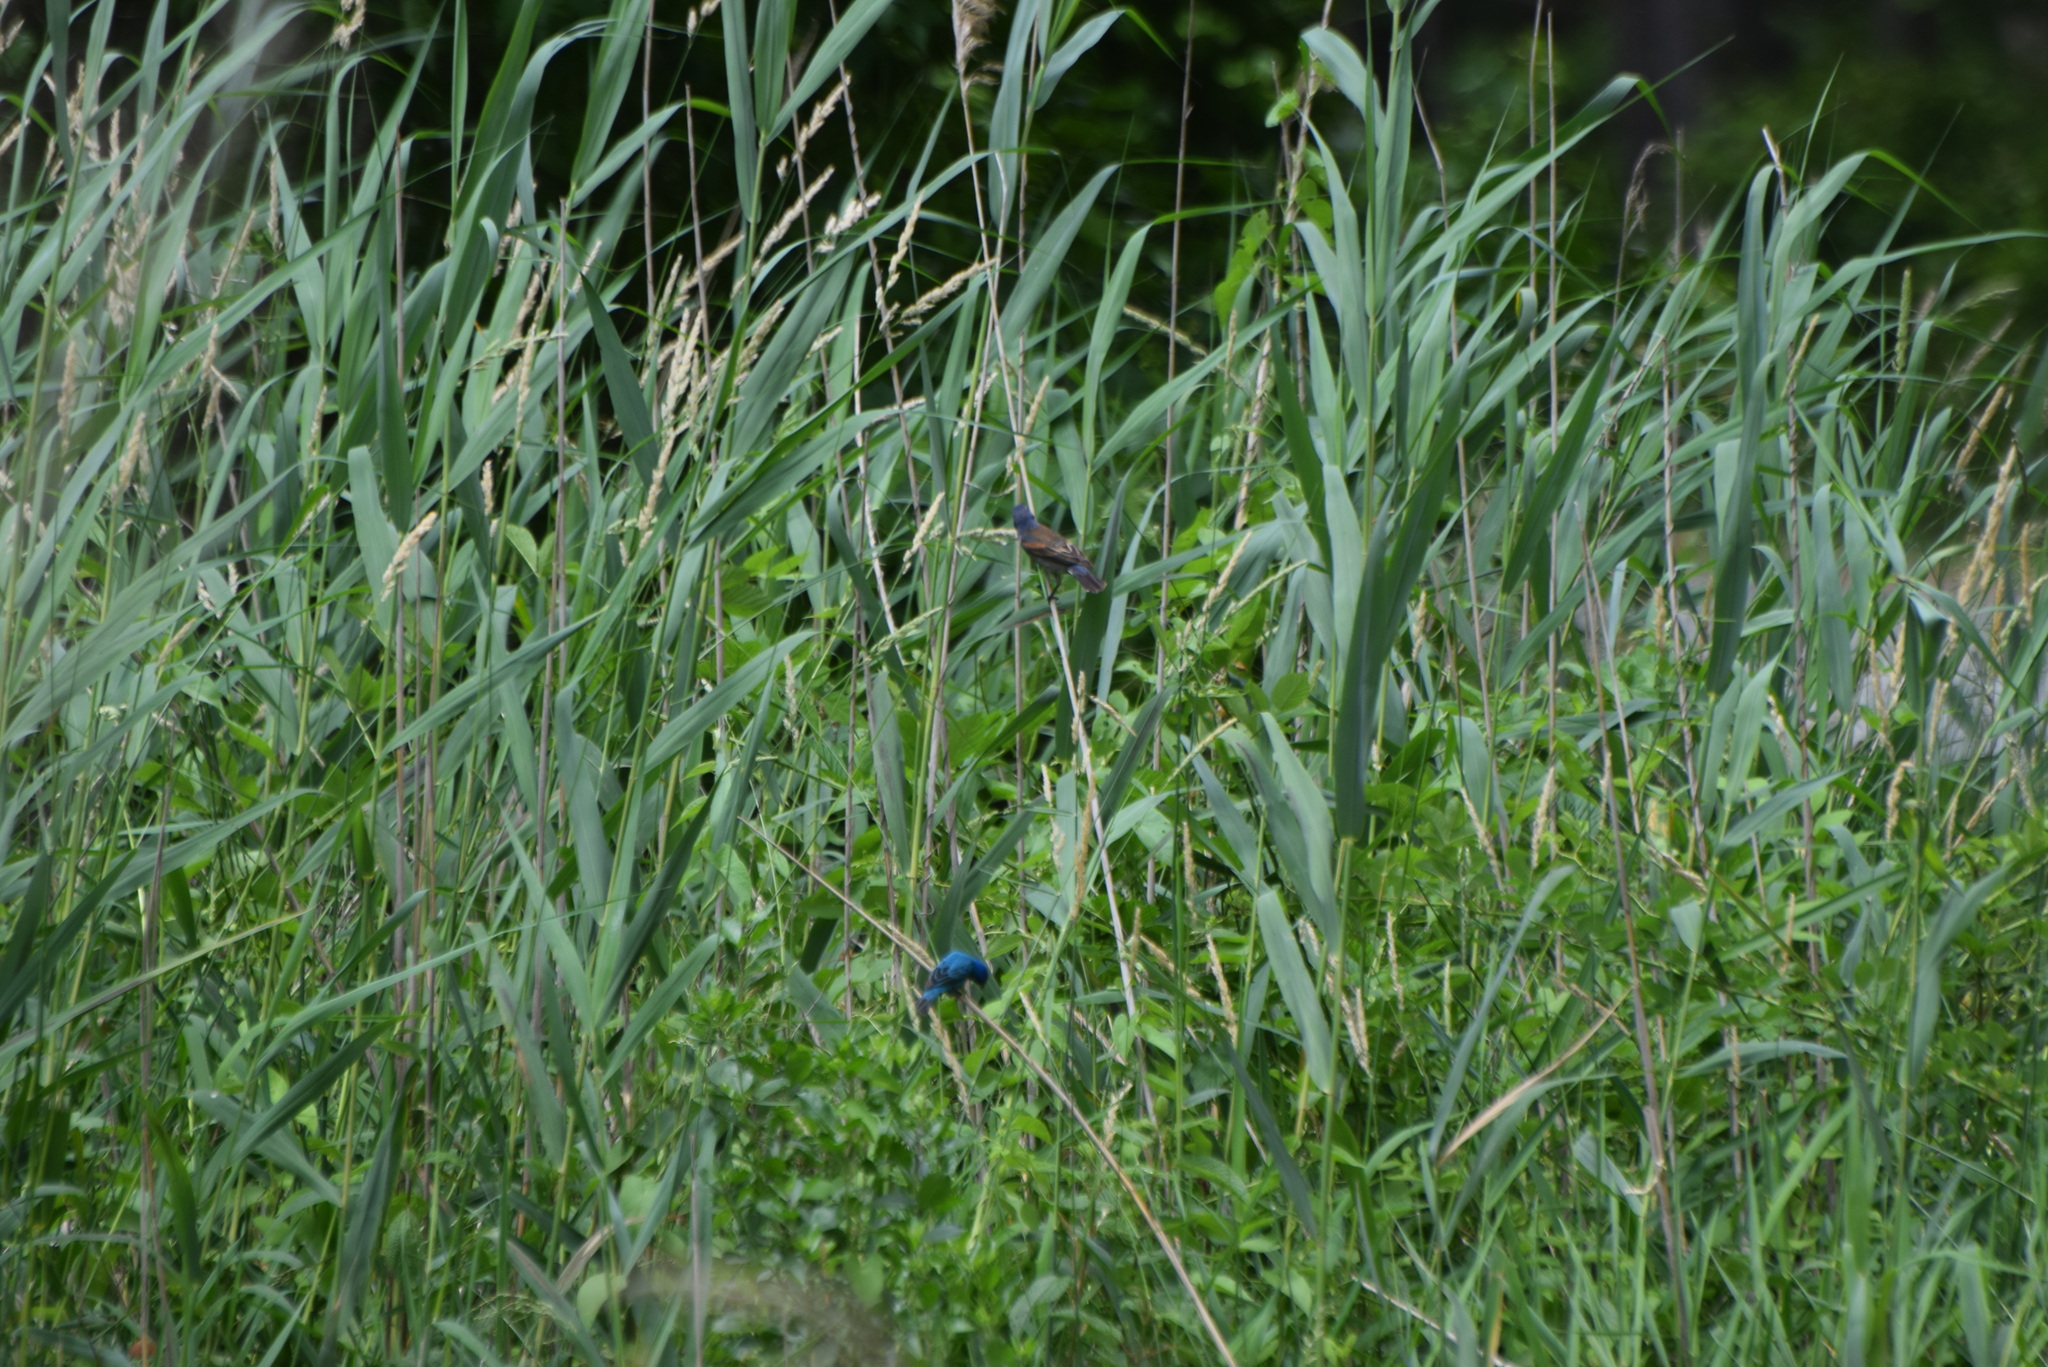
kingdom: Animalia
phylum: Chordata
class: Aves
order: Passeriformes
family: Cardinalidae
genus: Passerina
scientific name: Passerina caerulea
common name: Blue grosbeak
